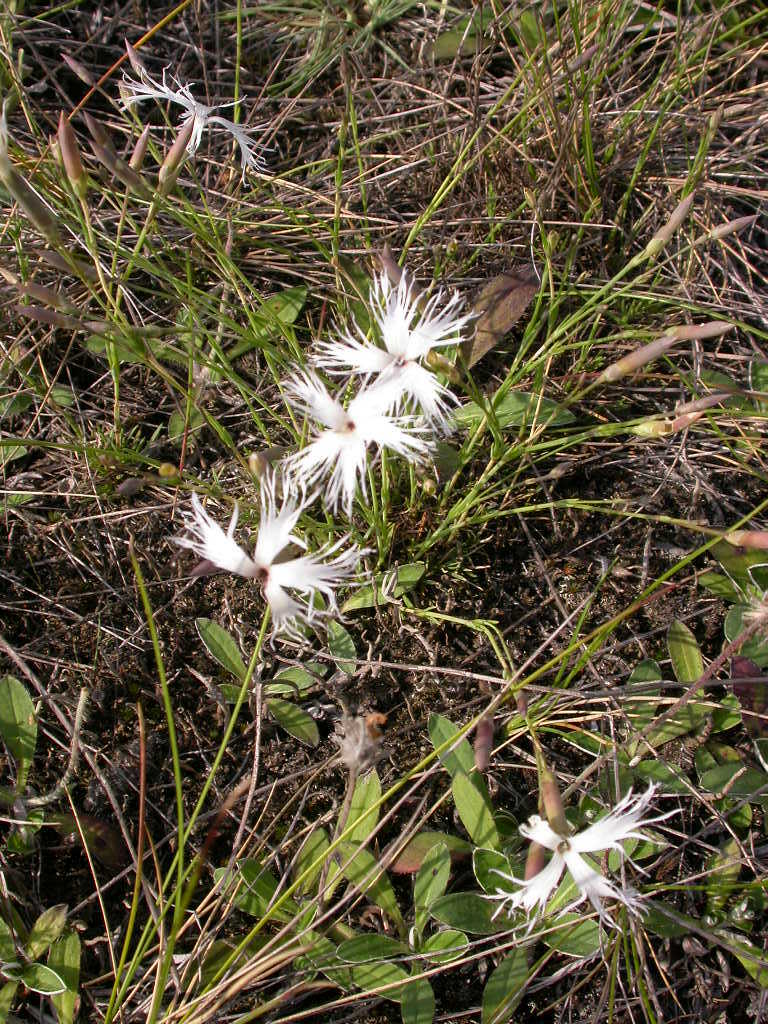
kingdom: Plantae
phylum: Tracheophyta
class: Magnoliopsida
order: Caryophyllales
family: Caryophyllaceae
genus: Dianthus
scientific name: Dianthus arenarius
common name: Stone pink
